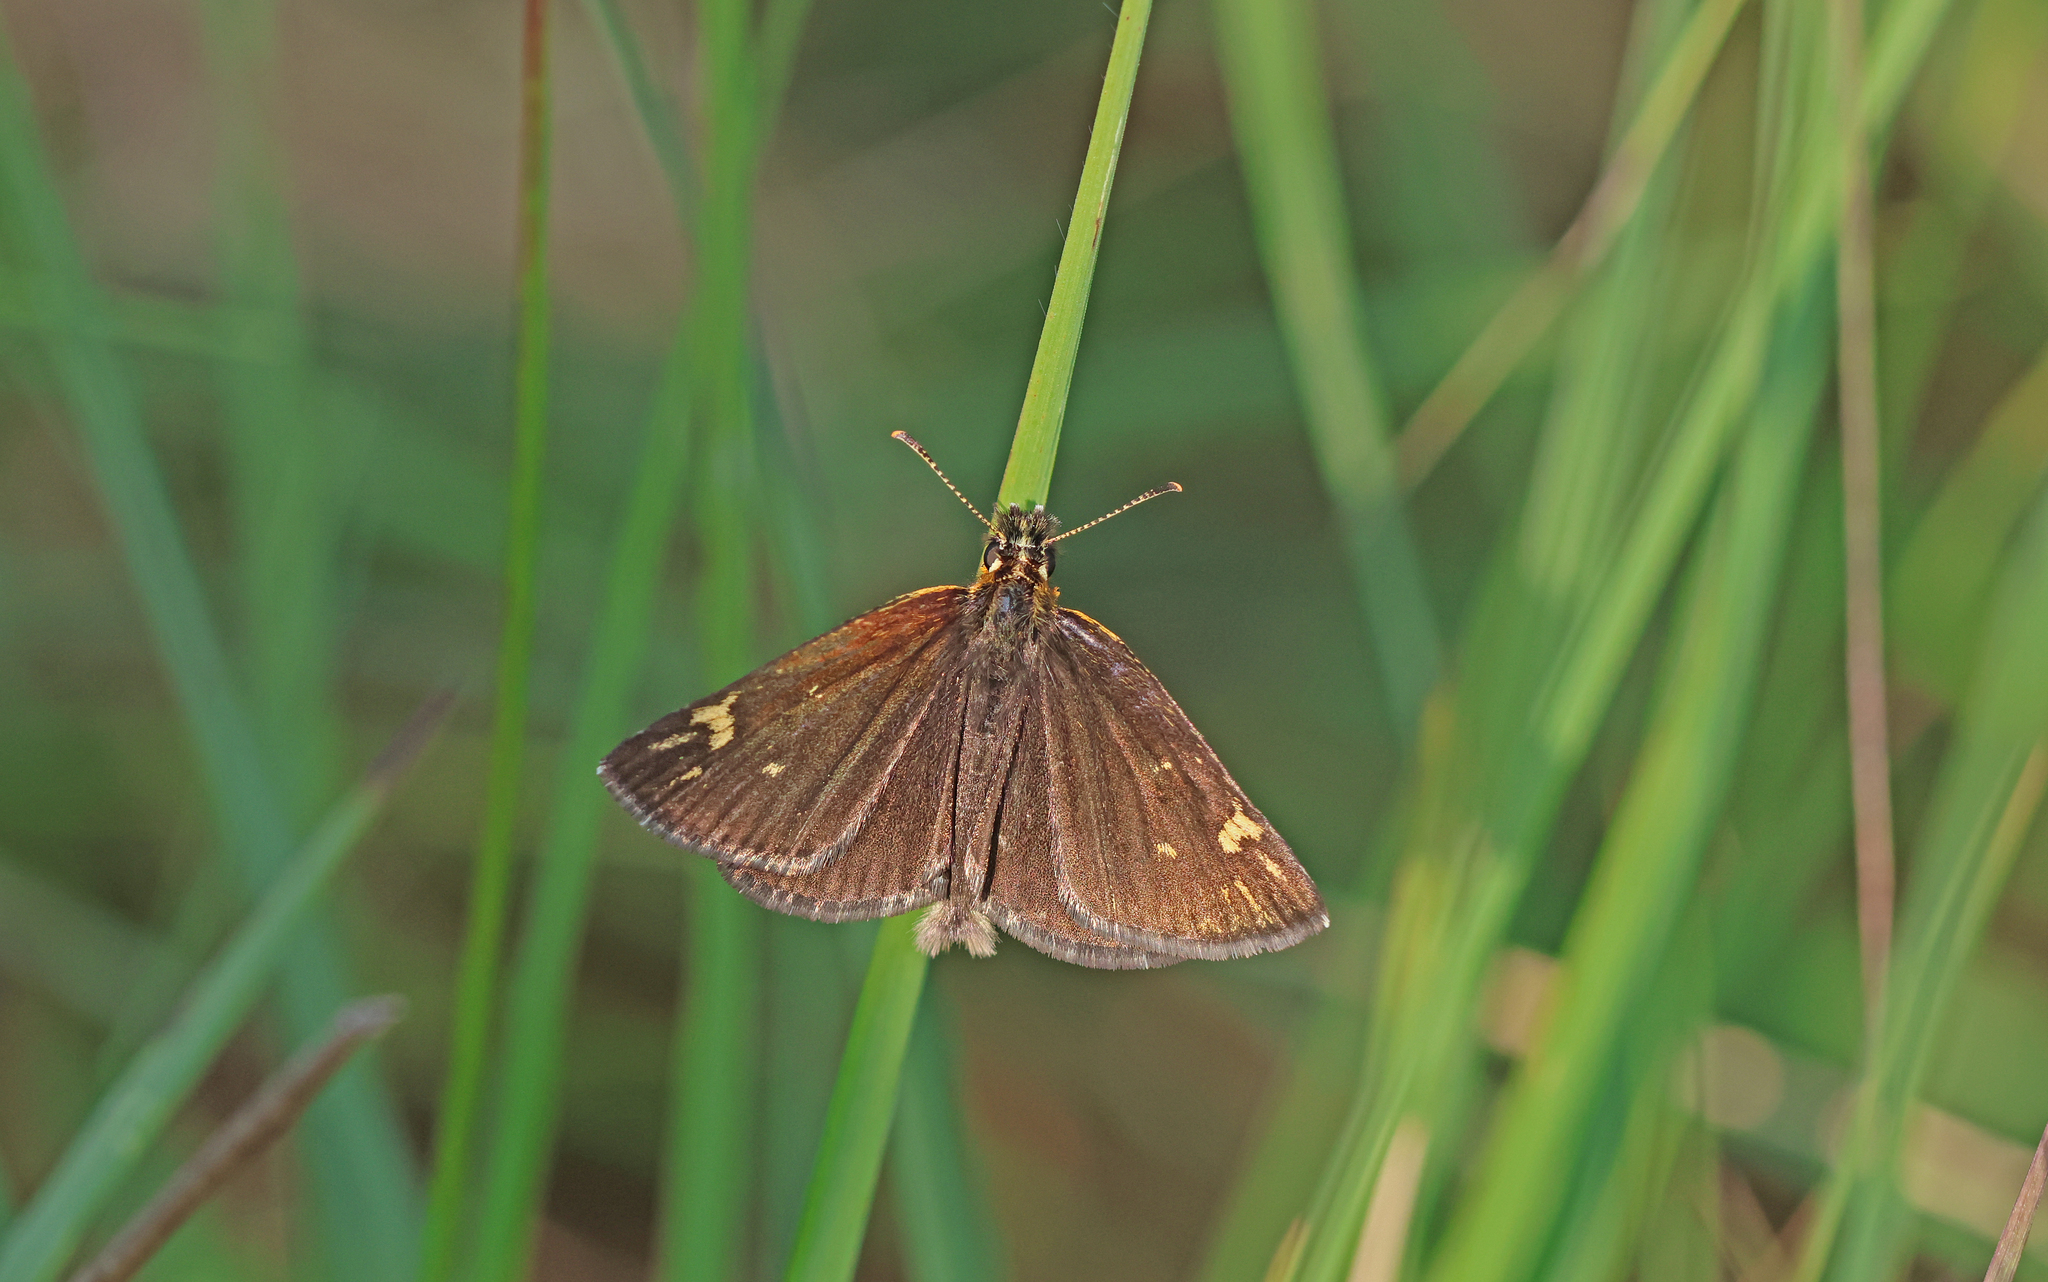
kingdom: Animalia
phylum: Arthropoda
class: Insecta
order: Lepidoptera
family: Hesperiidae
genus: Heteropterus
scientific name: Heteropterus morpheus
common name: Large chequered skipper
